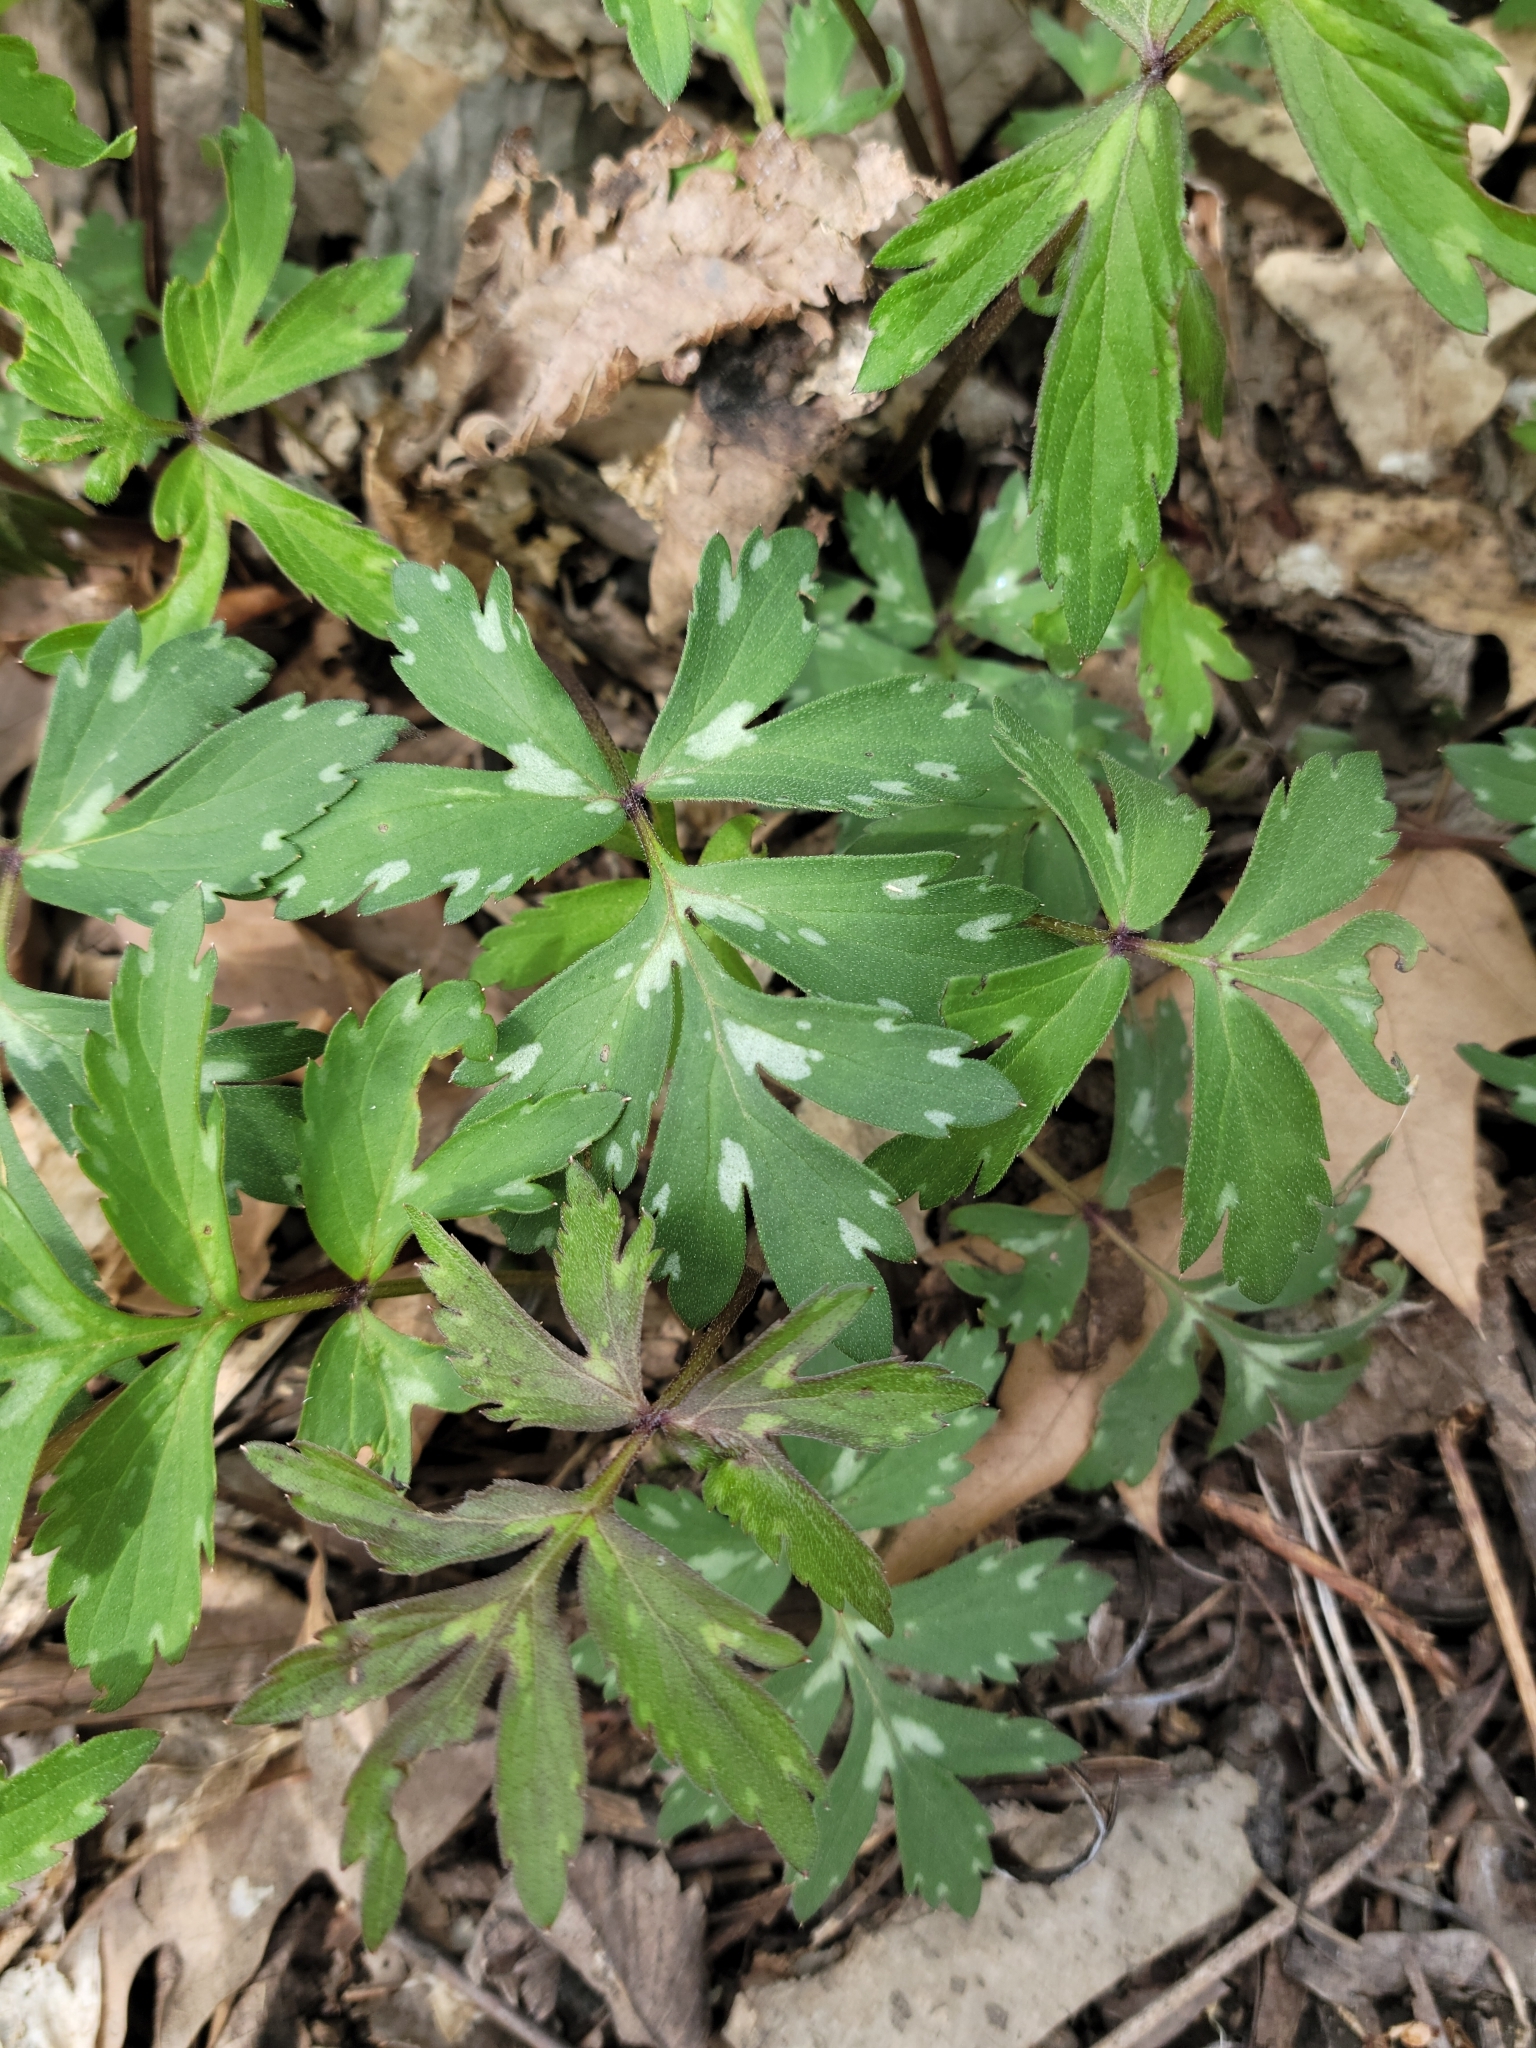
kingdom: Plantae
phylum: Tracheophyta
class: Magnoliopsida
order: Boraginales
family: Hydrophyllaceae
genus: Hydrophyllum
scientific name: Hydrophyllum virginianum
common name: Virginia waterleaf
